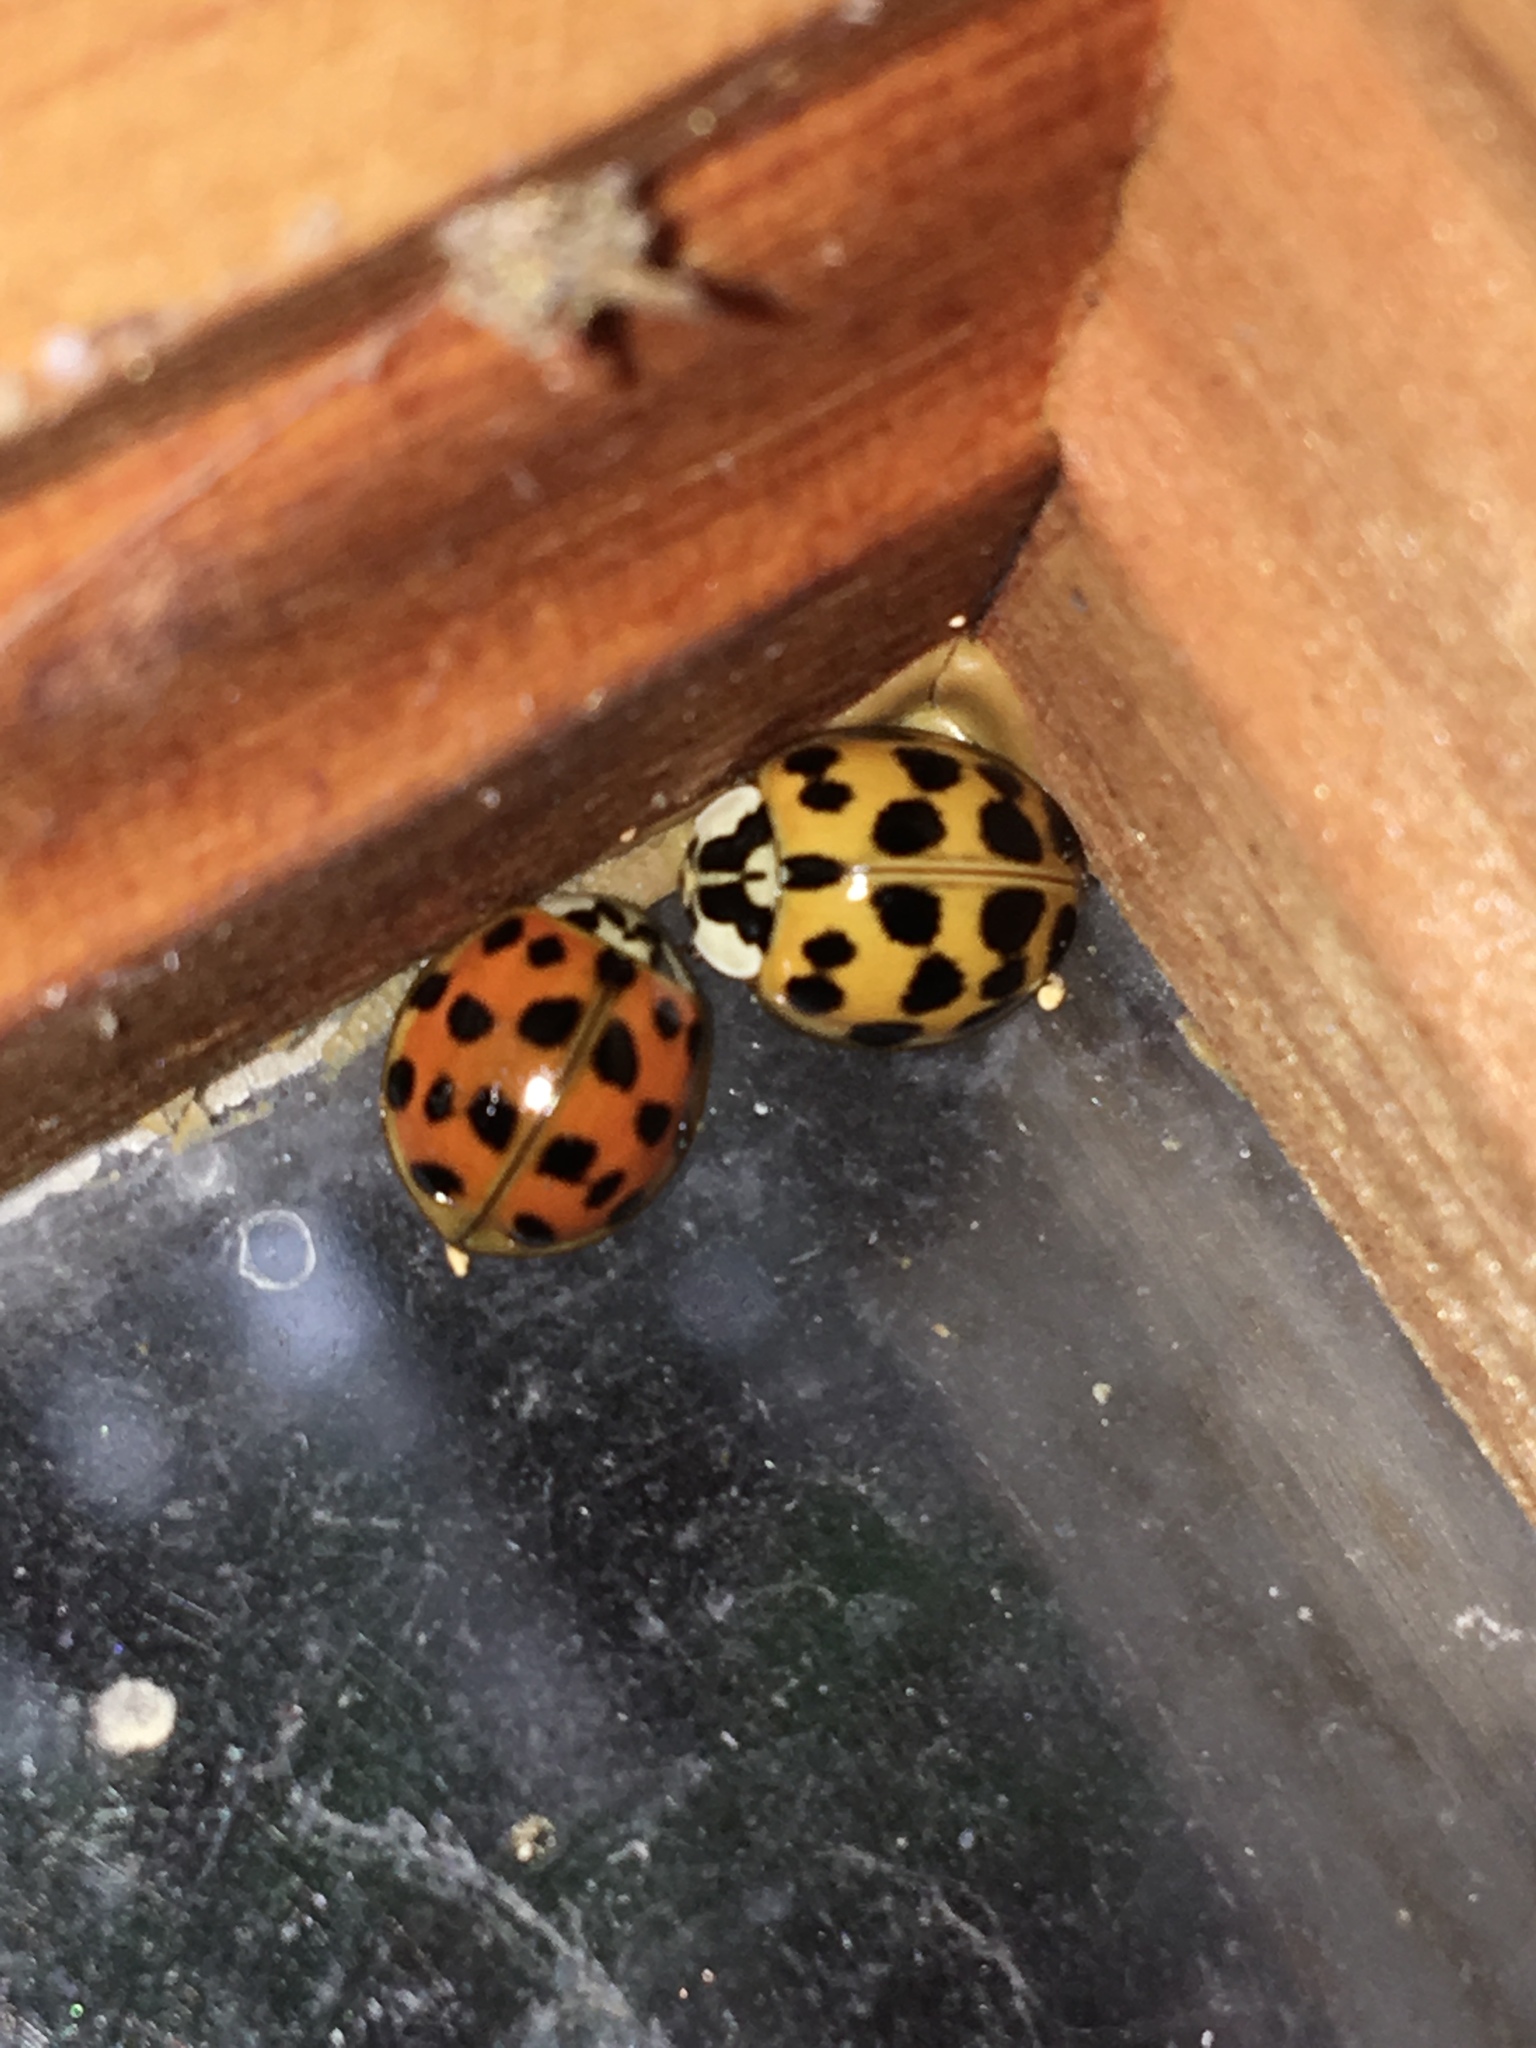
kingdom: Animalia
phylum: Arthropoda
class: Insecta
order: Coleoptera
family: Coccinellidae
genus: Harmonia
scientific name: Harmonia axyridis
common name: Harlequin ladybird
